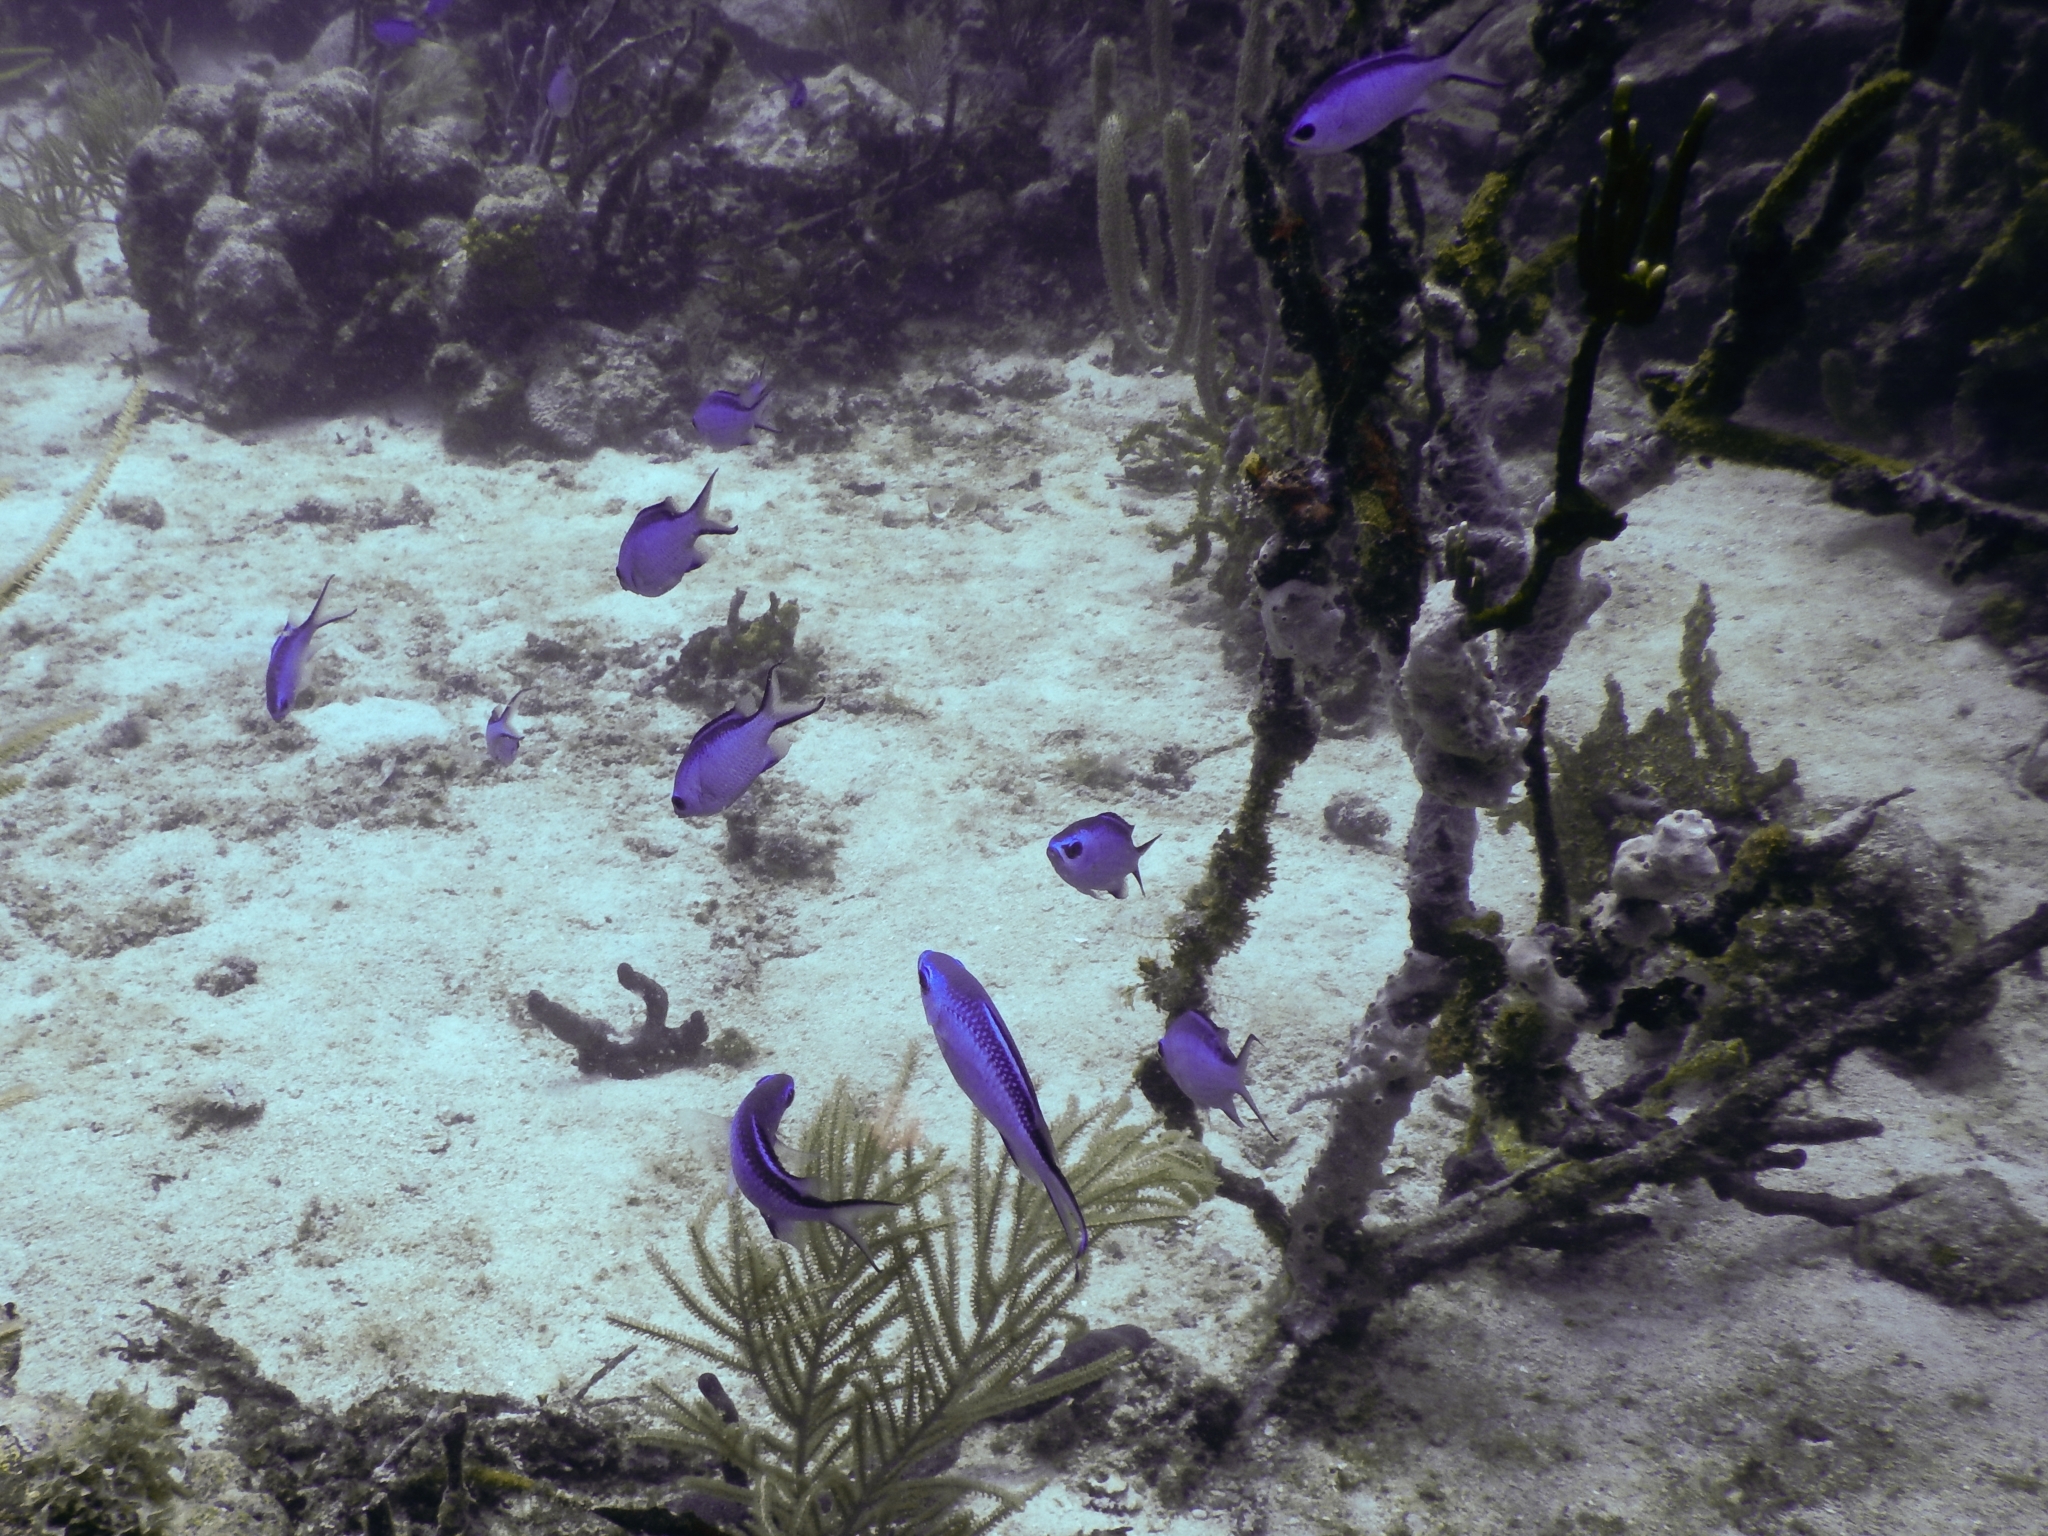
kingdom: Animalia
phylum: Chordata
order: Perciformes
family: Pomacentridae
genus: Chromis
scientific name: Chromis cyanea
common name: Blue chromis
